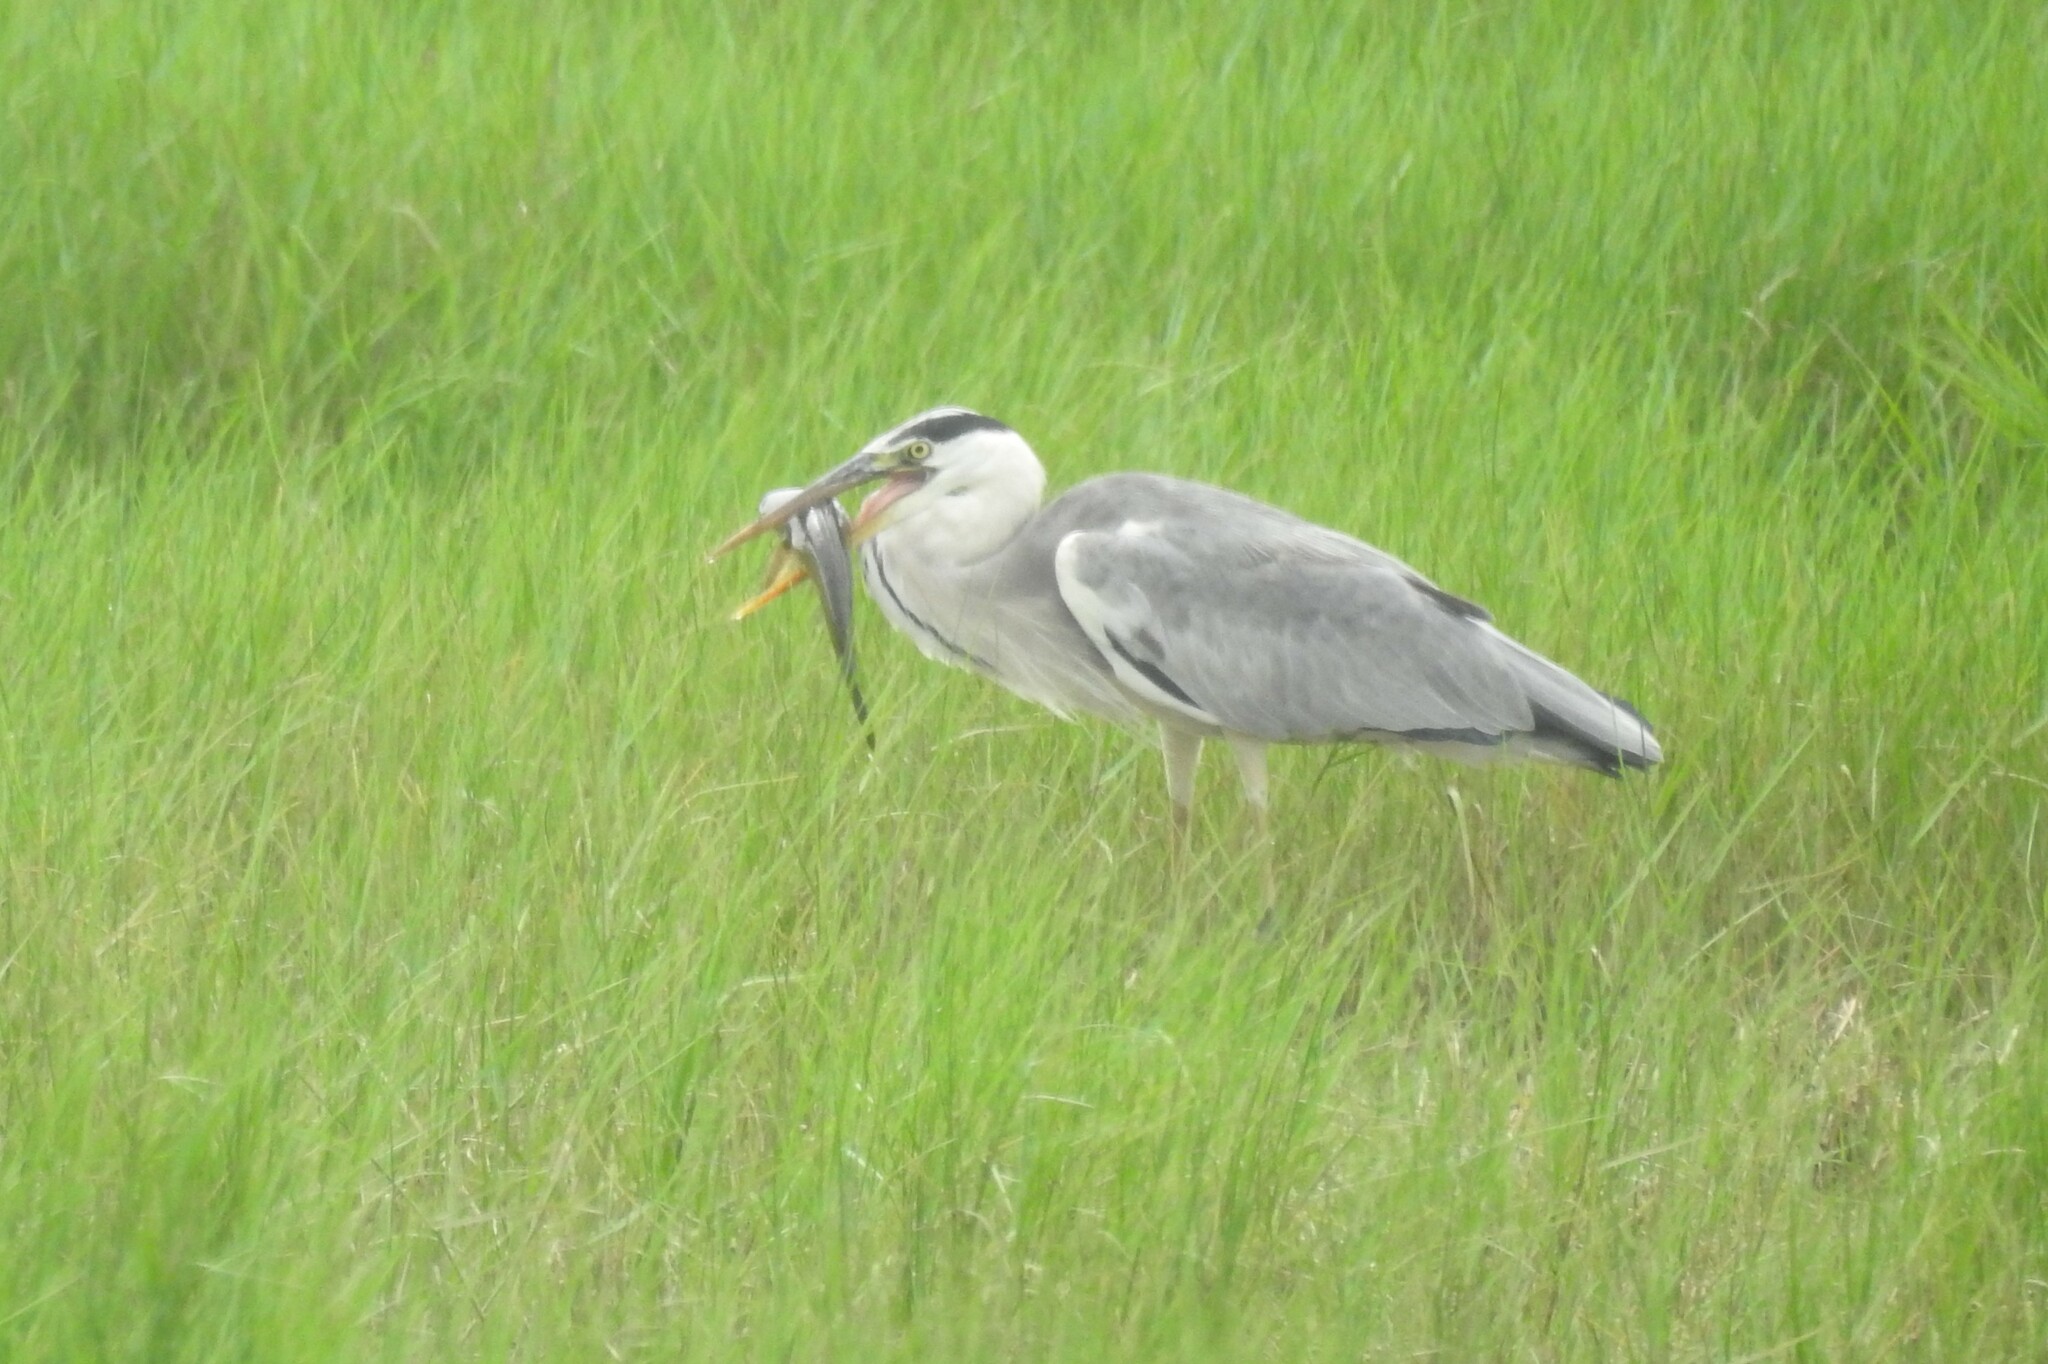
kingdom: Animalia
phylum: Chordata
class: Aves
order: Pelecaniformes
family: Ardeidae
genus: Ardea
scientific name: Ardea cinerea
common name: Grey heron
